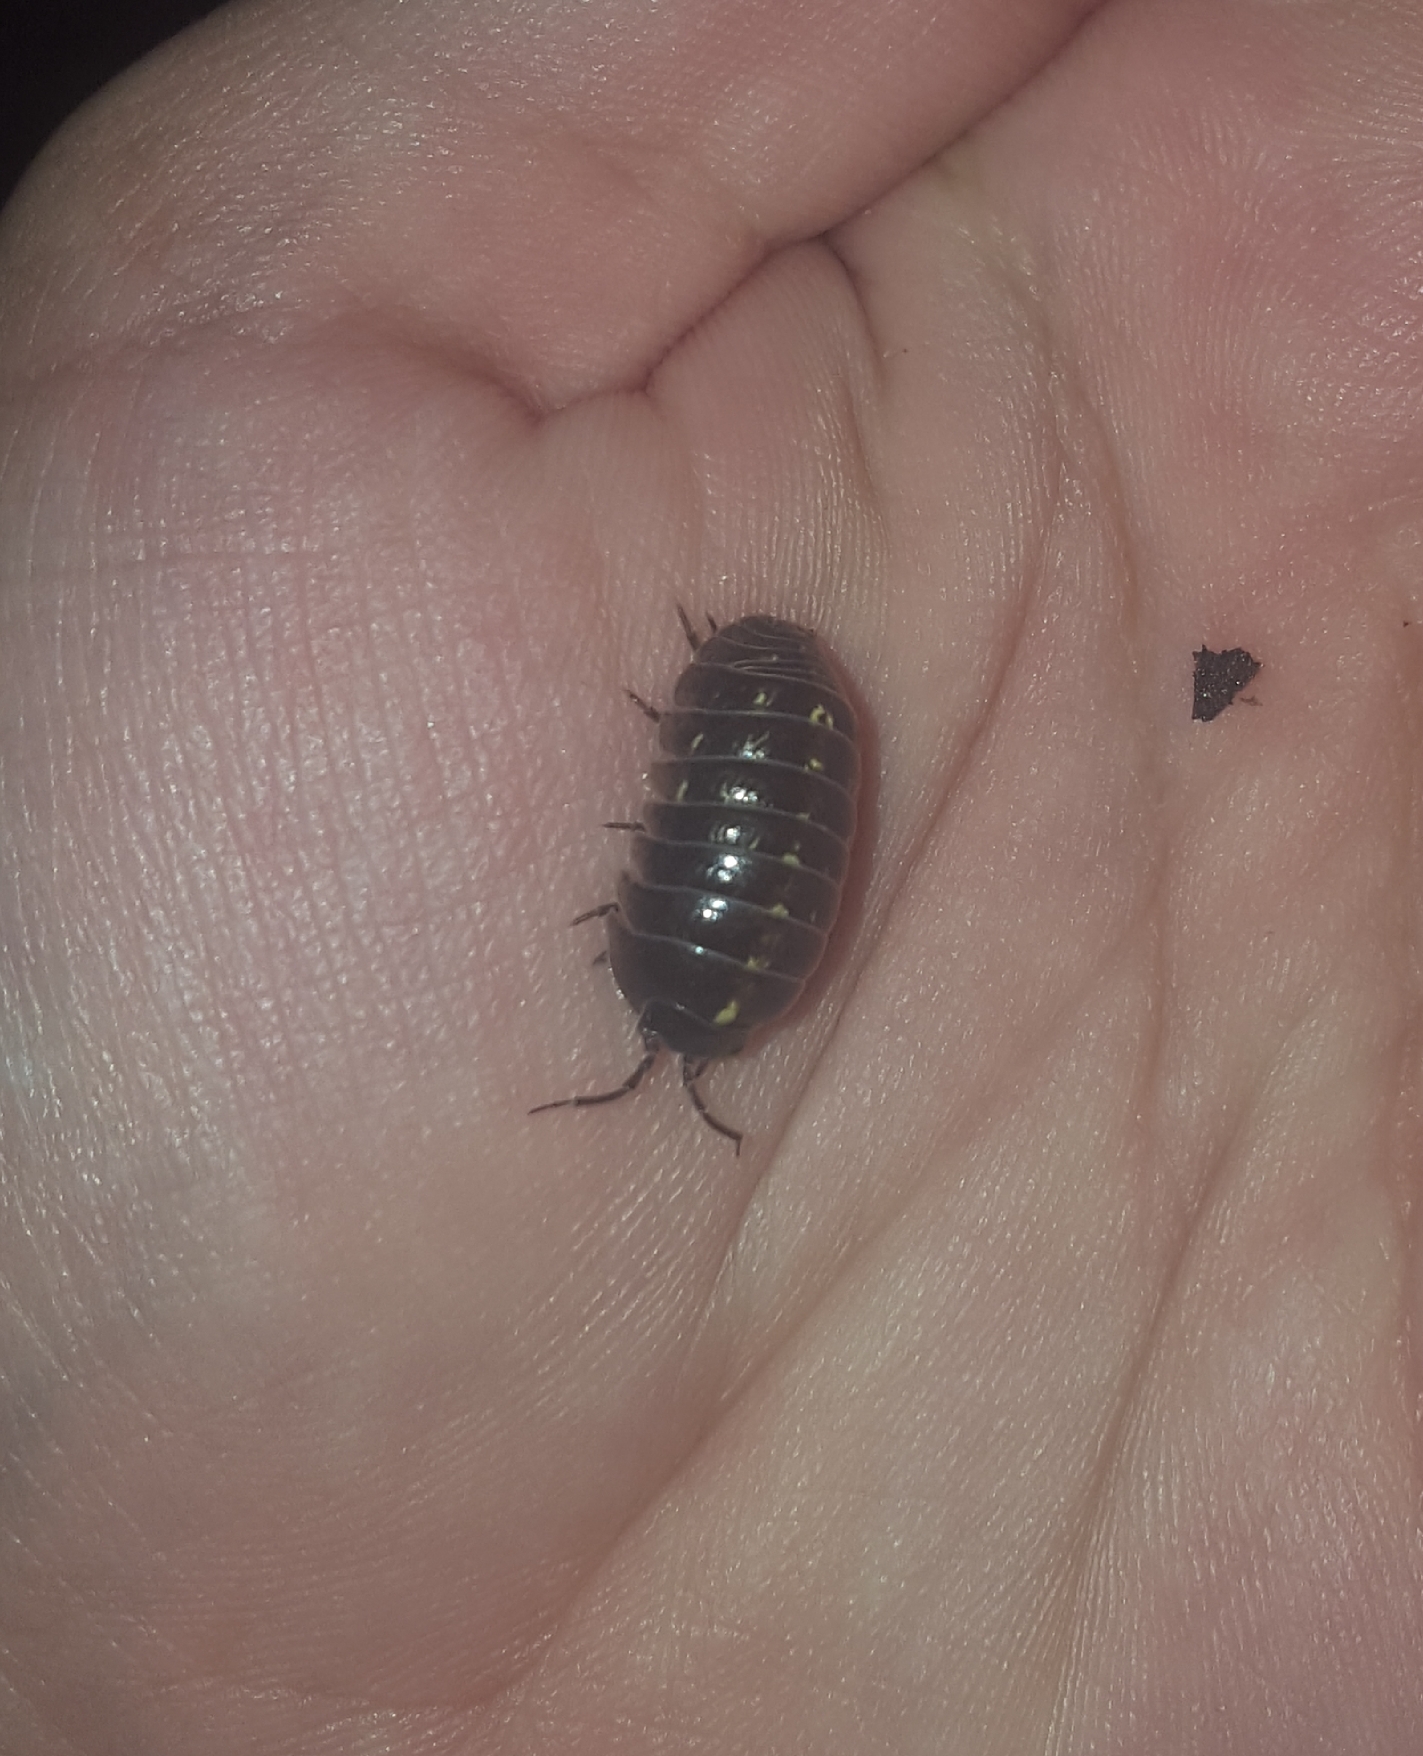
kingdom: Animalia
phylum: Arthropoda
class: Malacostraca
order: Isopoda
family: Armadillidiidae
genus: Armadillidium
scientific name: Armadillidium vulgare
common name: Common pill woodlouse
